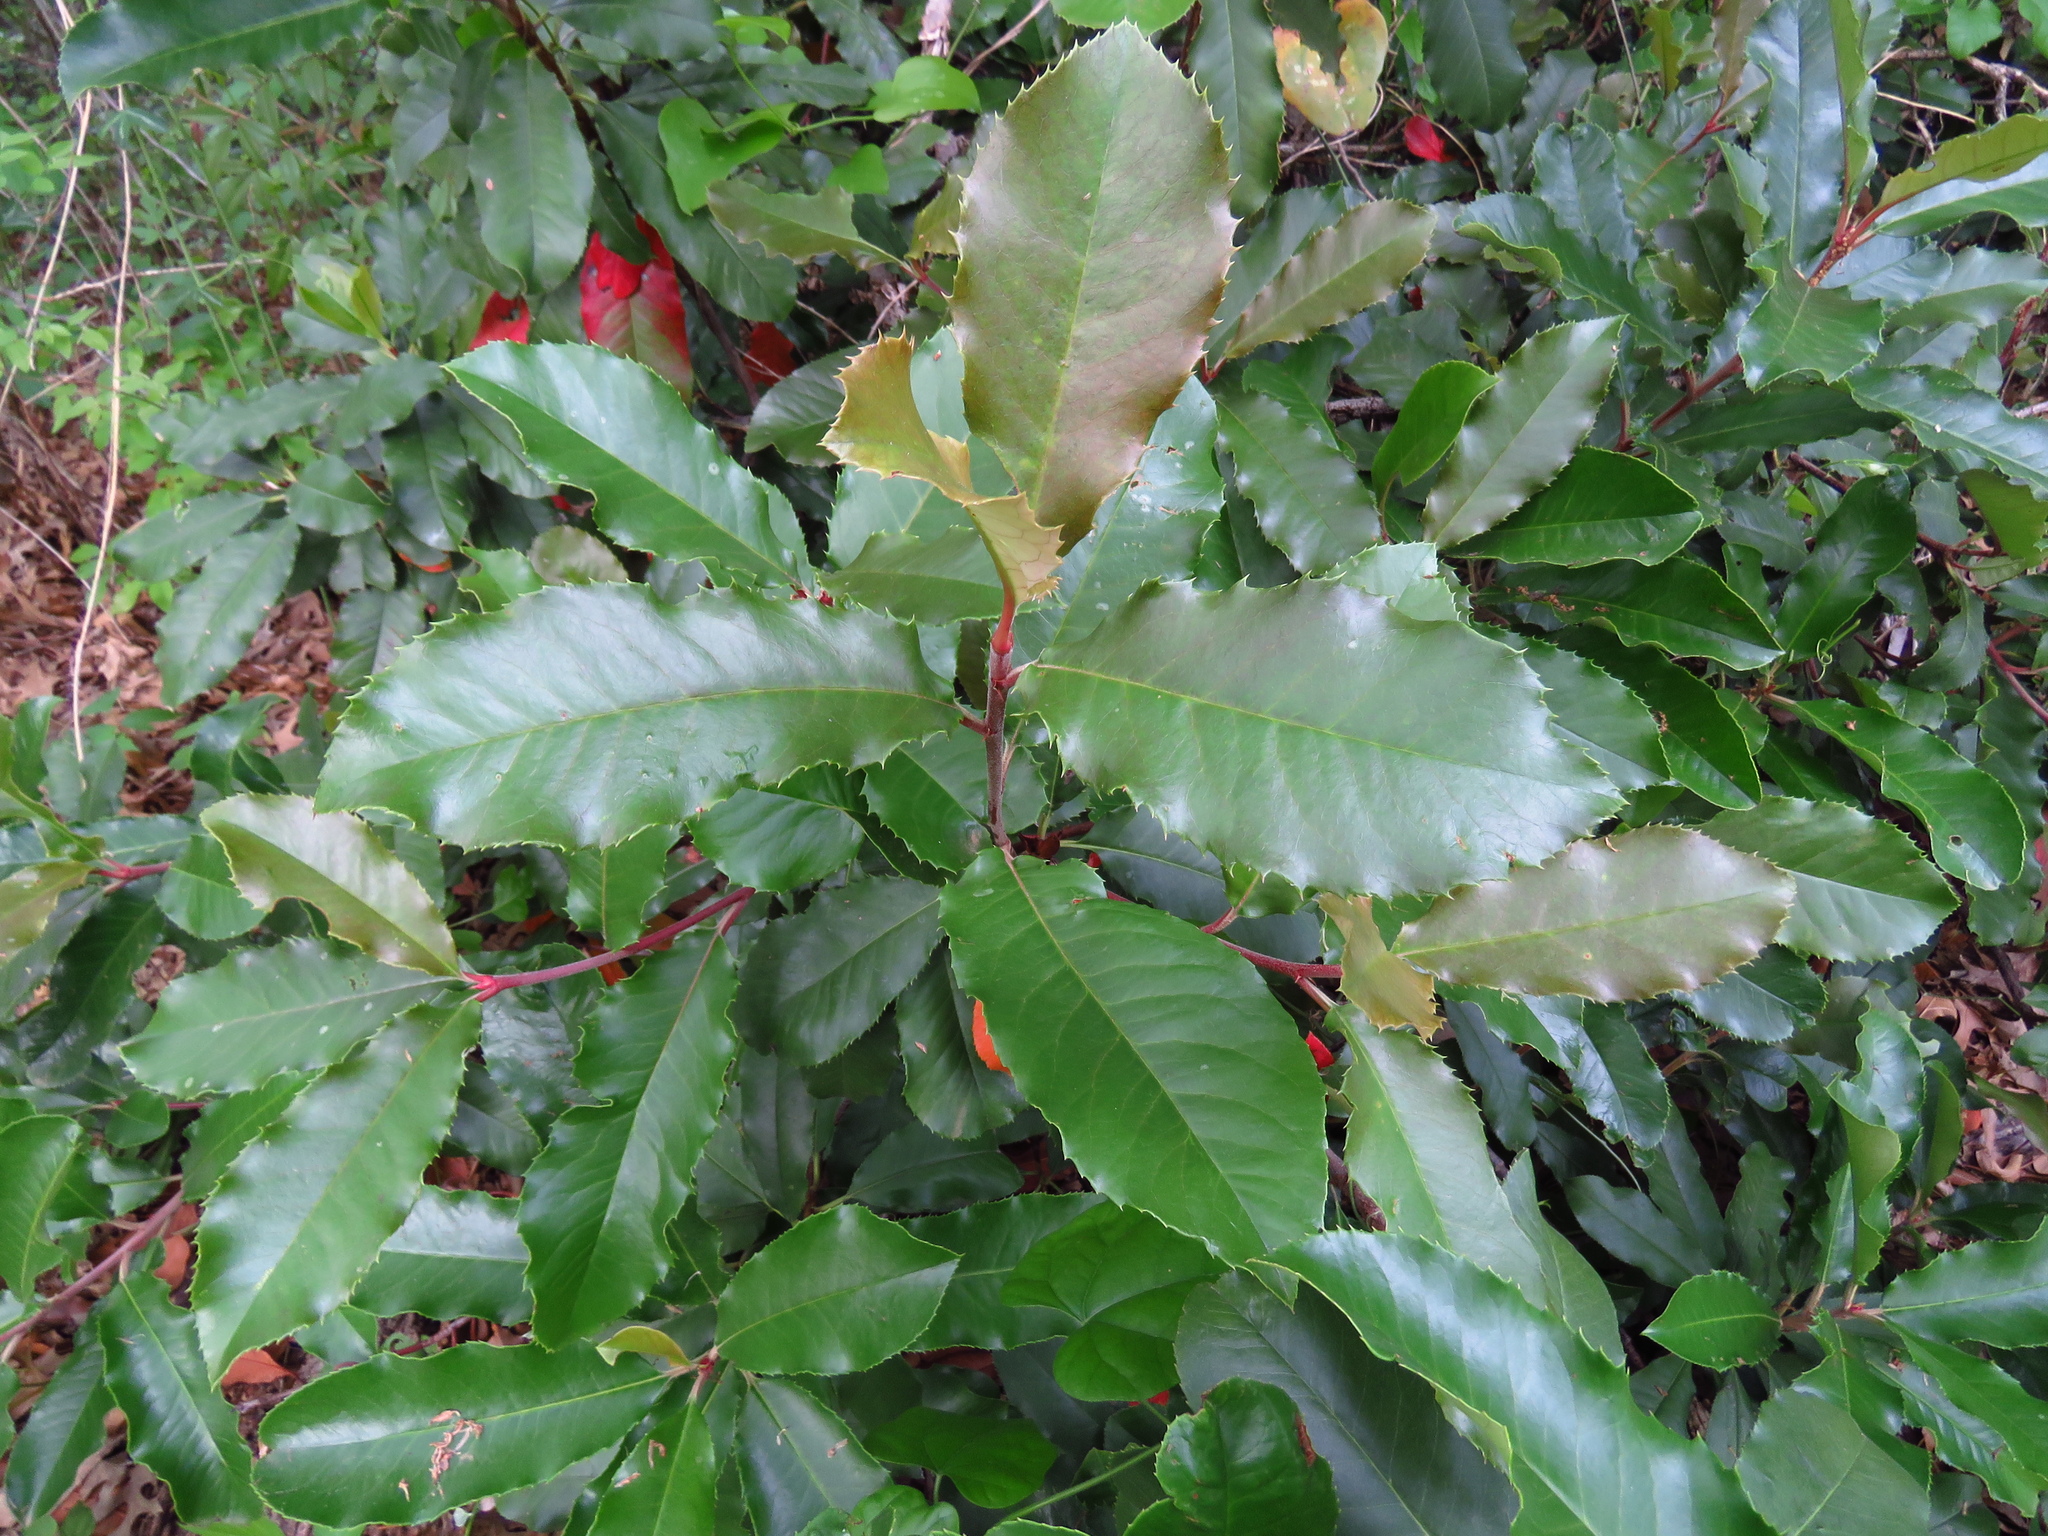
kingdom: Plantae
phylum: Tracheophyta
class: Magnoliopsida
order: Rosales
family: Rosaceae
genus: Photinia
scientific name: Photinia serratifolia
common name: Taiwanese photinia
